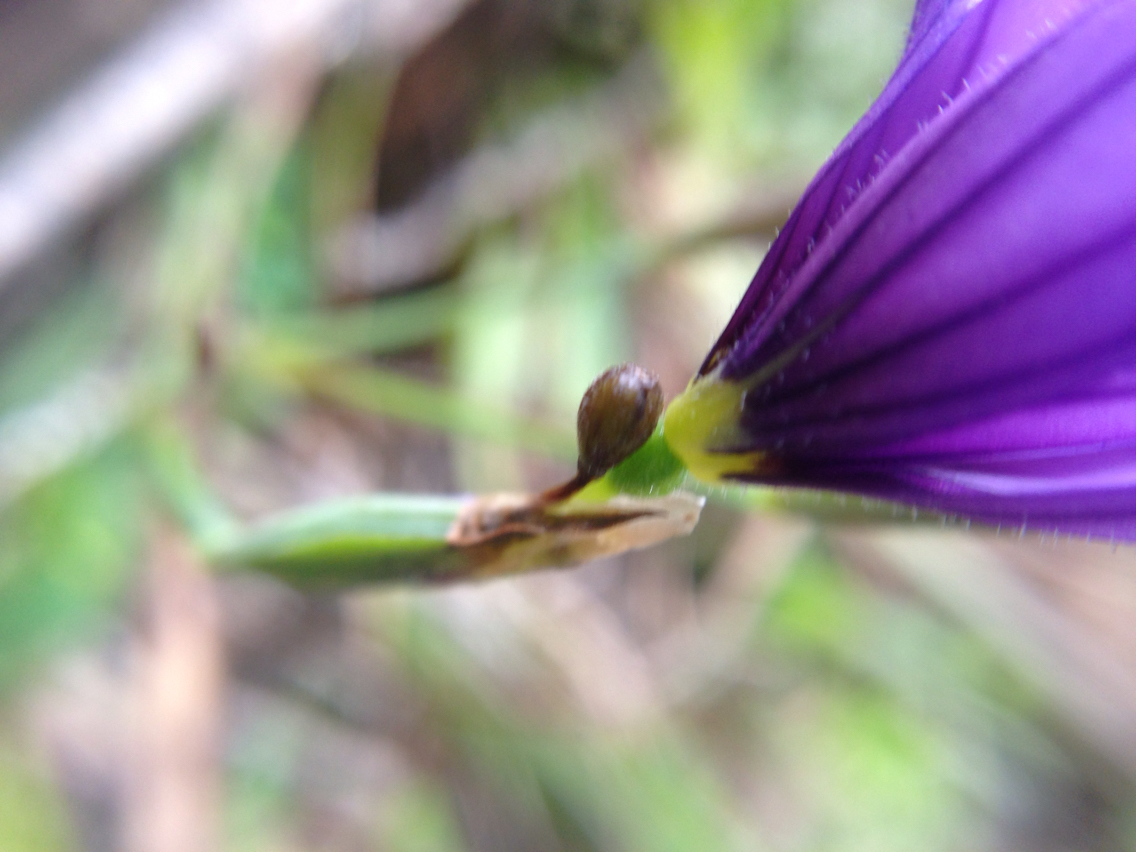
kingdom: Plantae
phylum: Tracheophyta
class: Liliopsida
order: Asparagales
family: Iridaceae
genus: Sisyrinchium
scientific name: Sisyrinchium bellum
